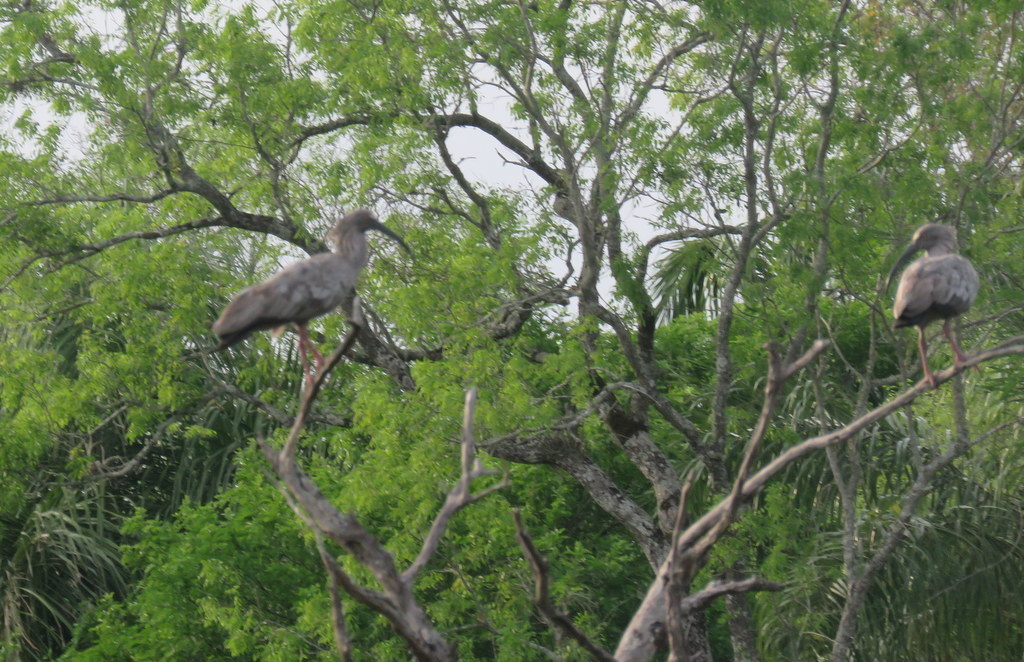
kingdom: Animalia
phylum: Chordata
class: Aves
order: Pelecaniformes
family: Threskiornithidae
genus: Theristicus
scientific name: Theristicus caerulescens
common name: Plumbeous ibis
